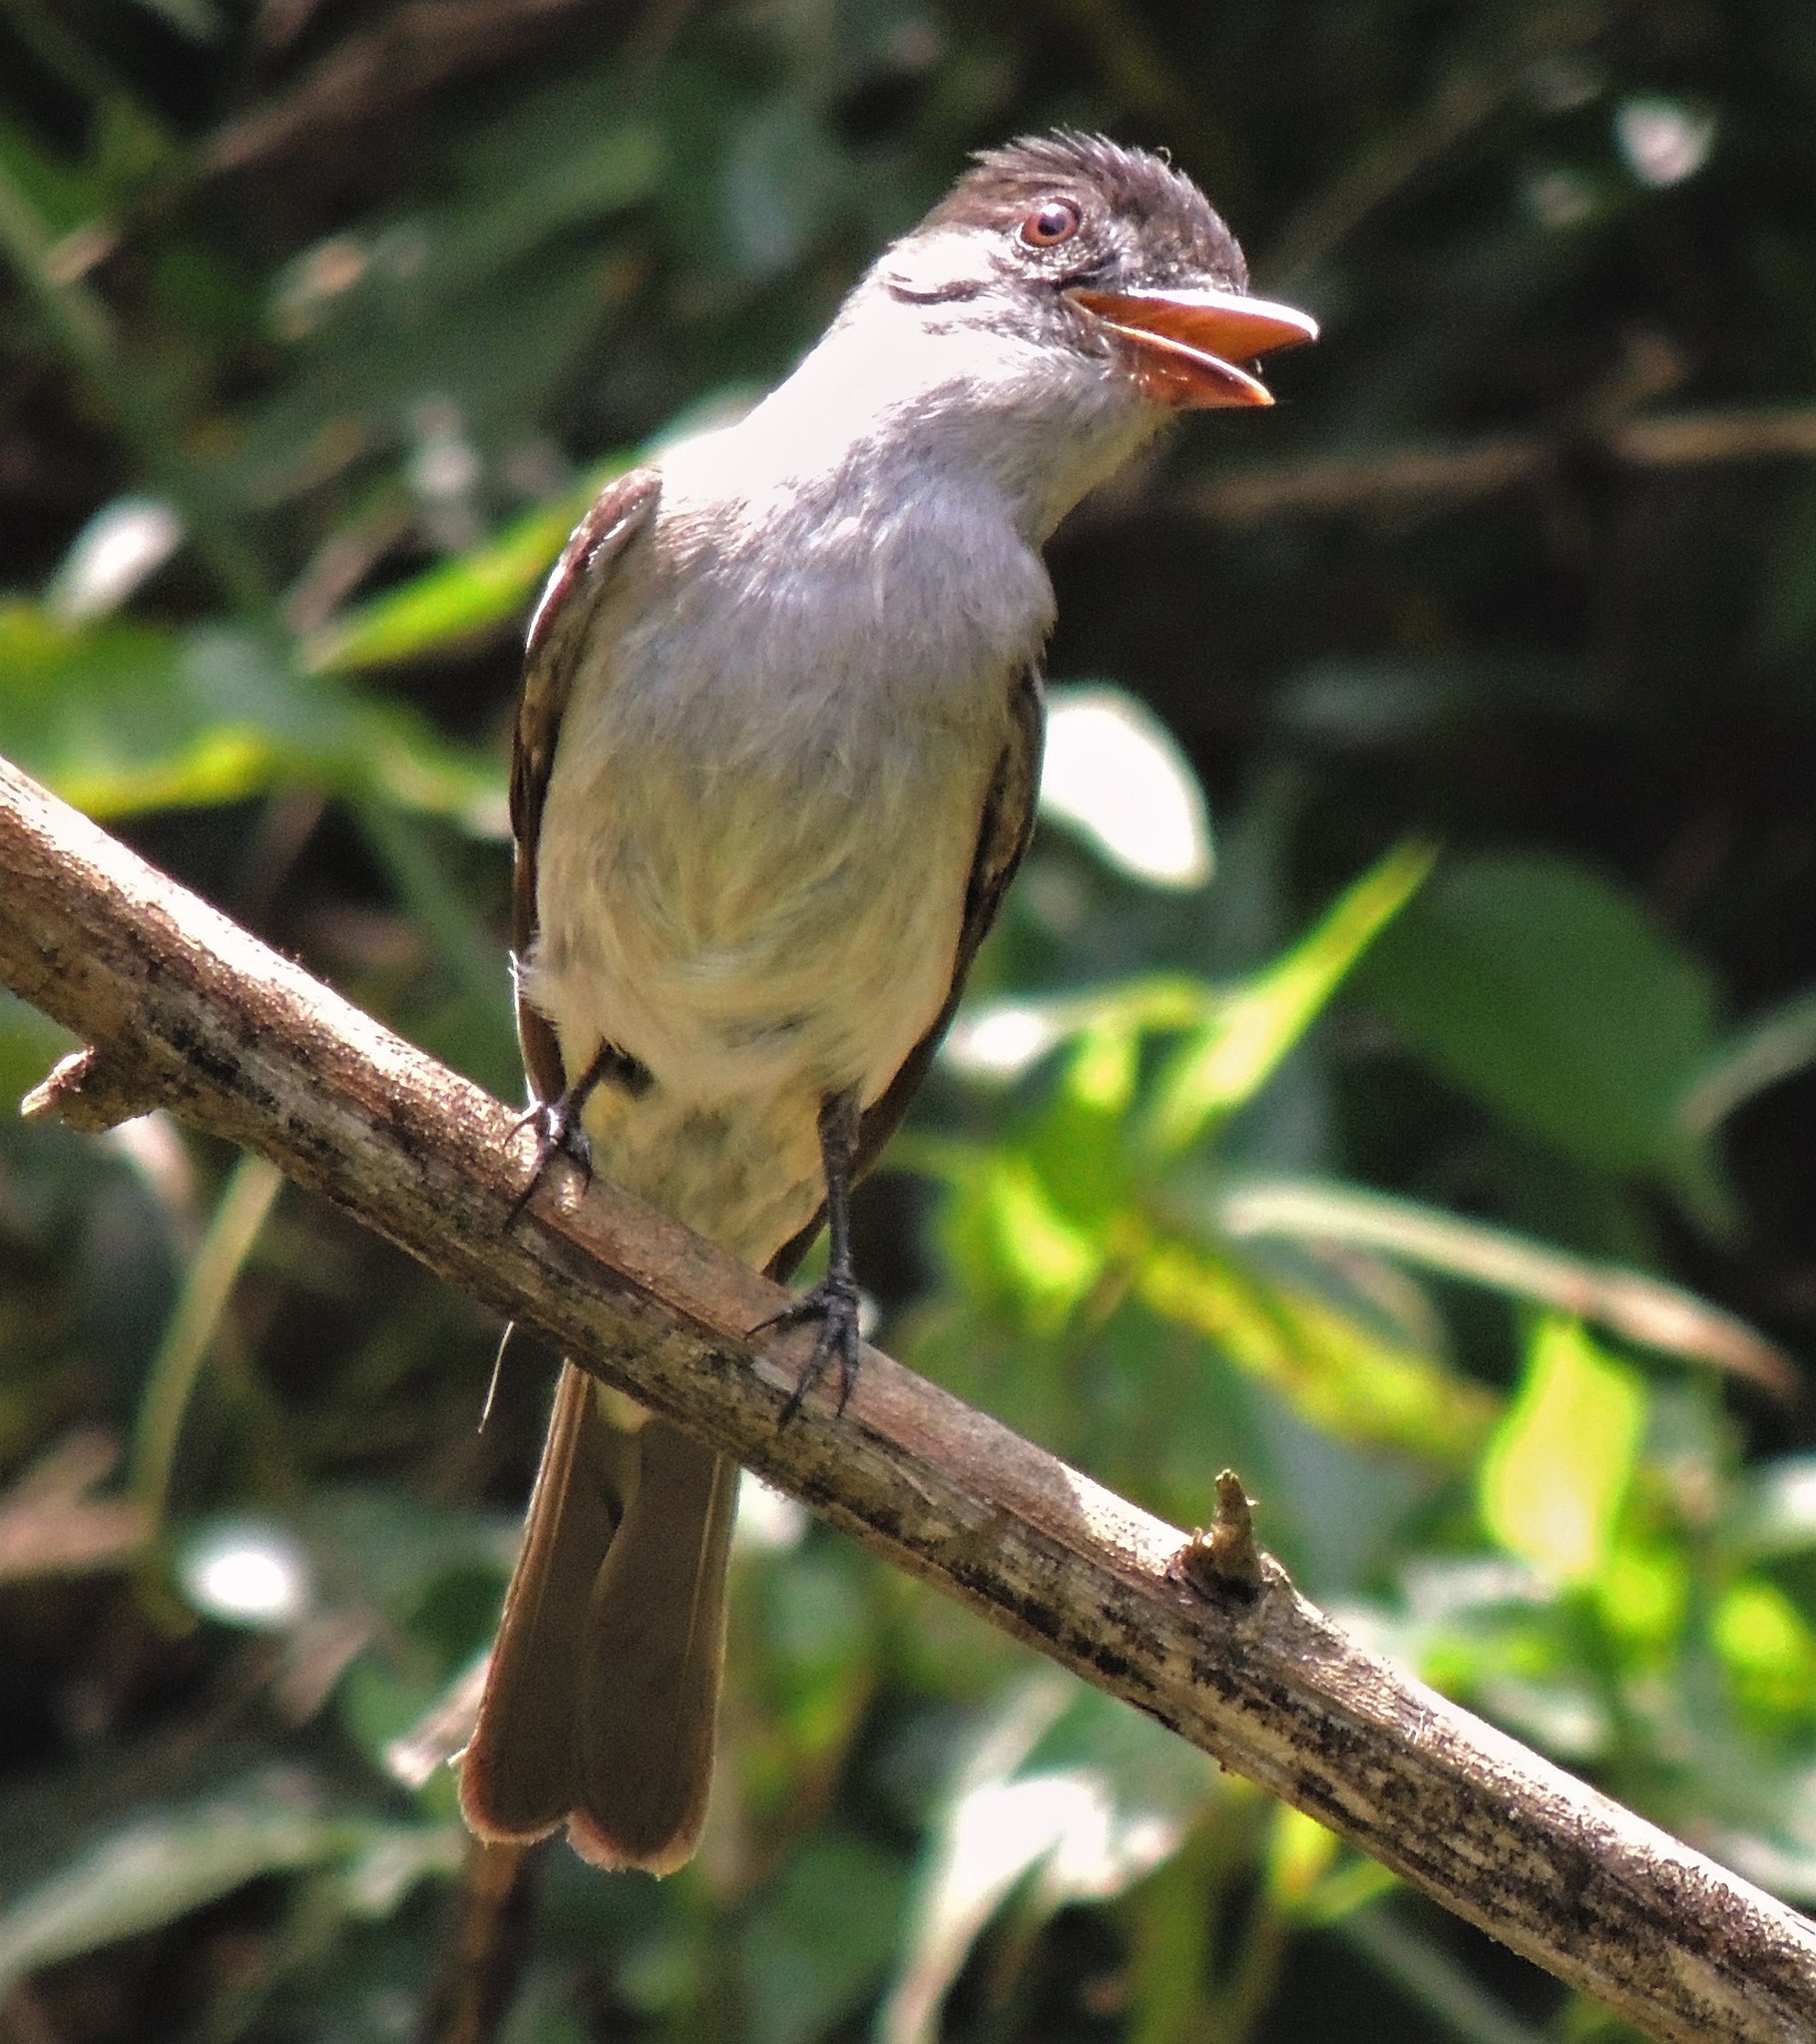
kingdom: Animalia
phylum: Chordata
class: Aves
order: Passeriformes
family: Tyrannidae
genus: Sirystes
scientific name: Sirystes sibilator
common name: Sirystes
